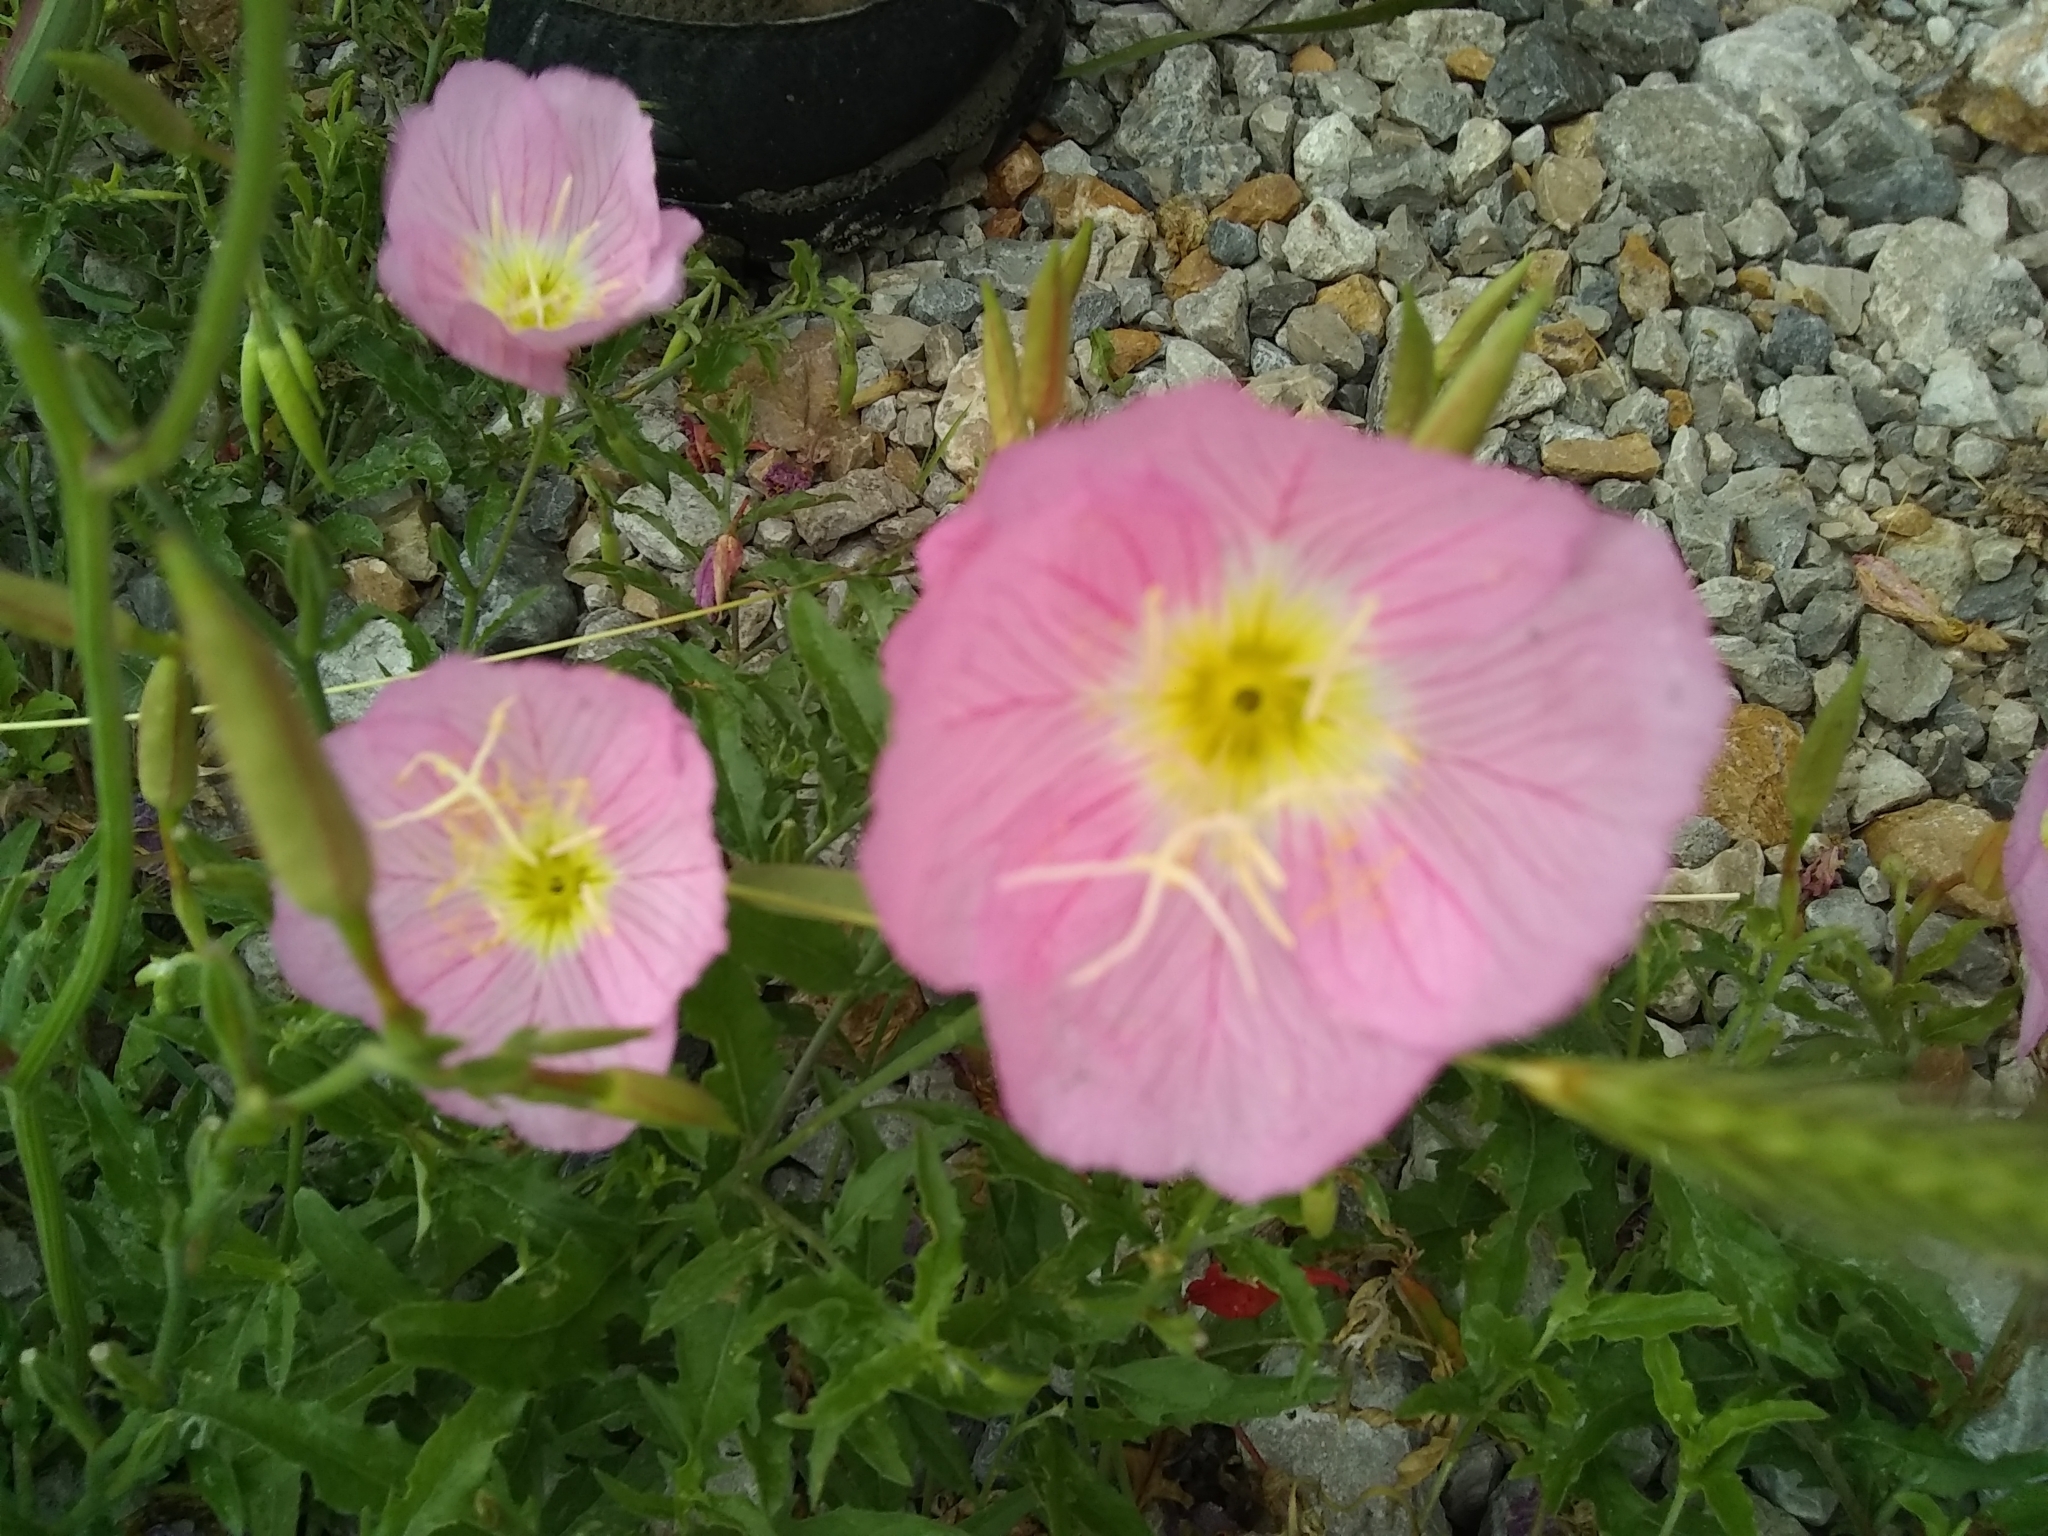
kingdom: Plantae
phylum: Tracheophyta
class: Magnoliopsida
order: Myrtales
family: Onagraceae
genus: Oenothera
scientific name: Oenothera speciosa
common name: White evening-primrose
